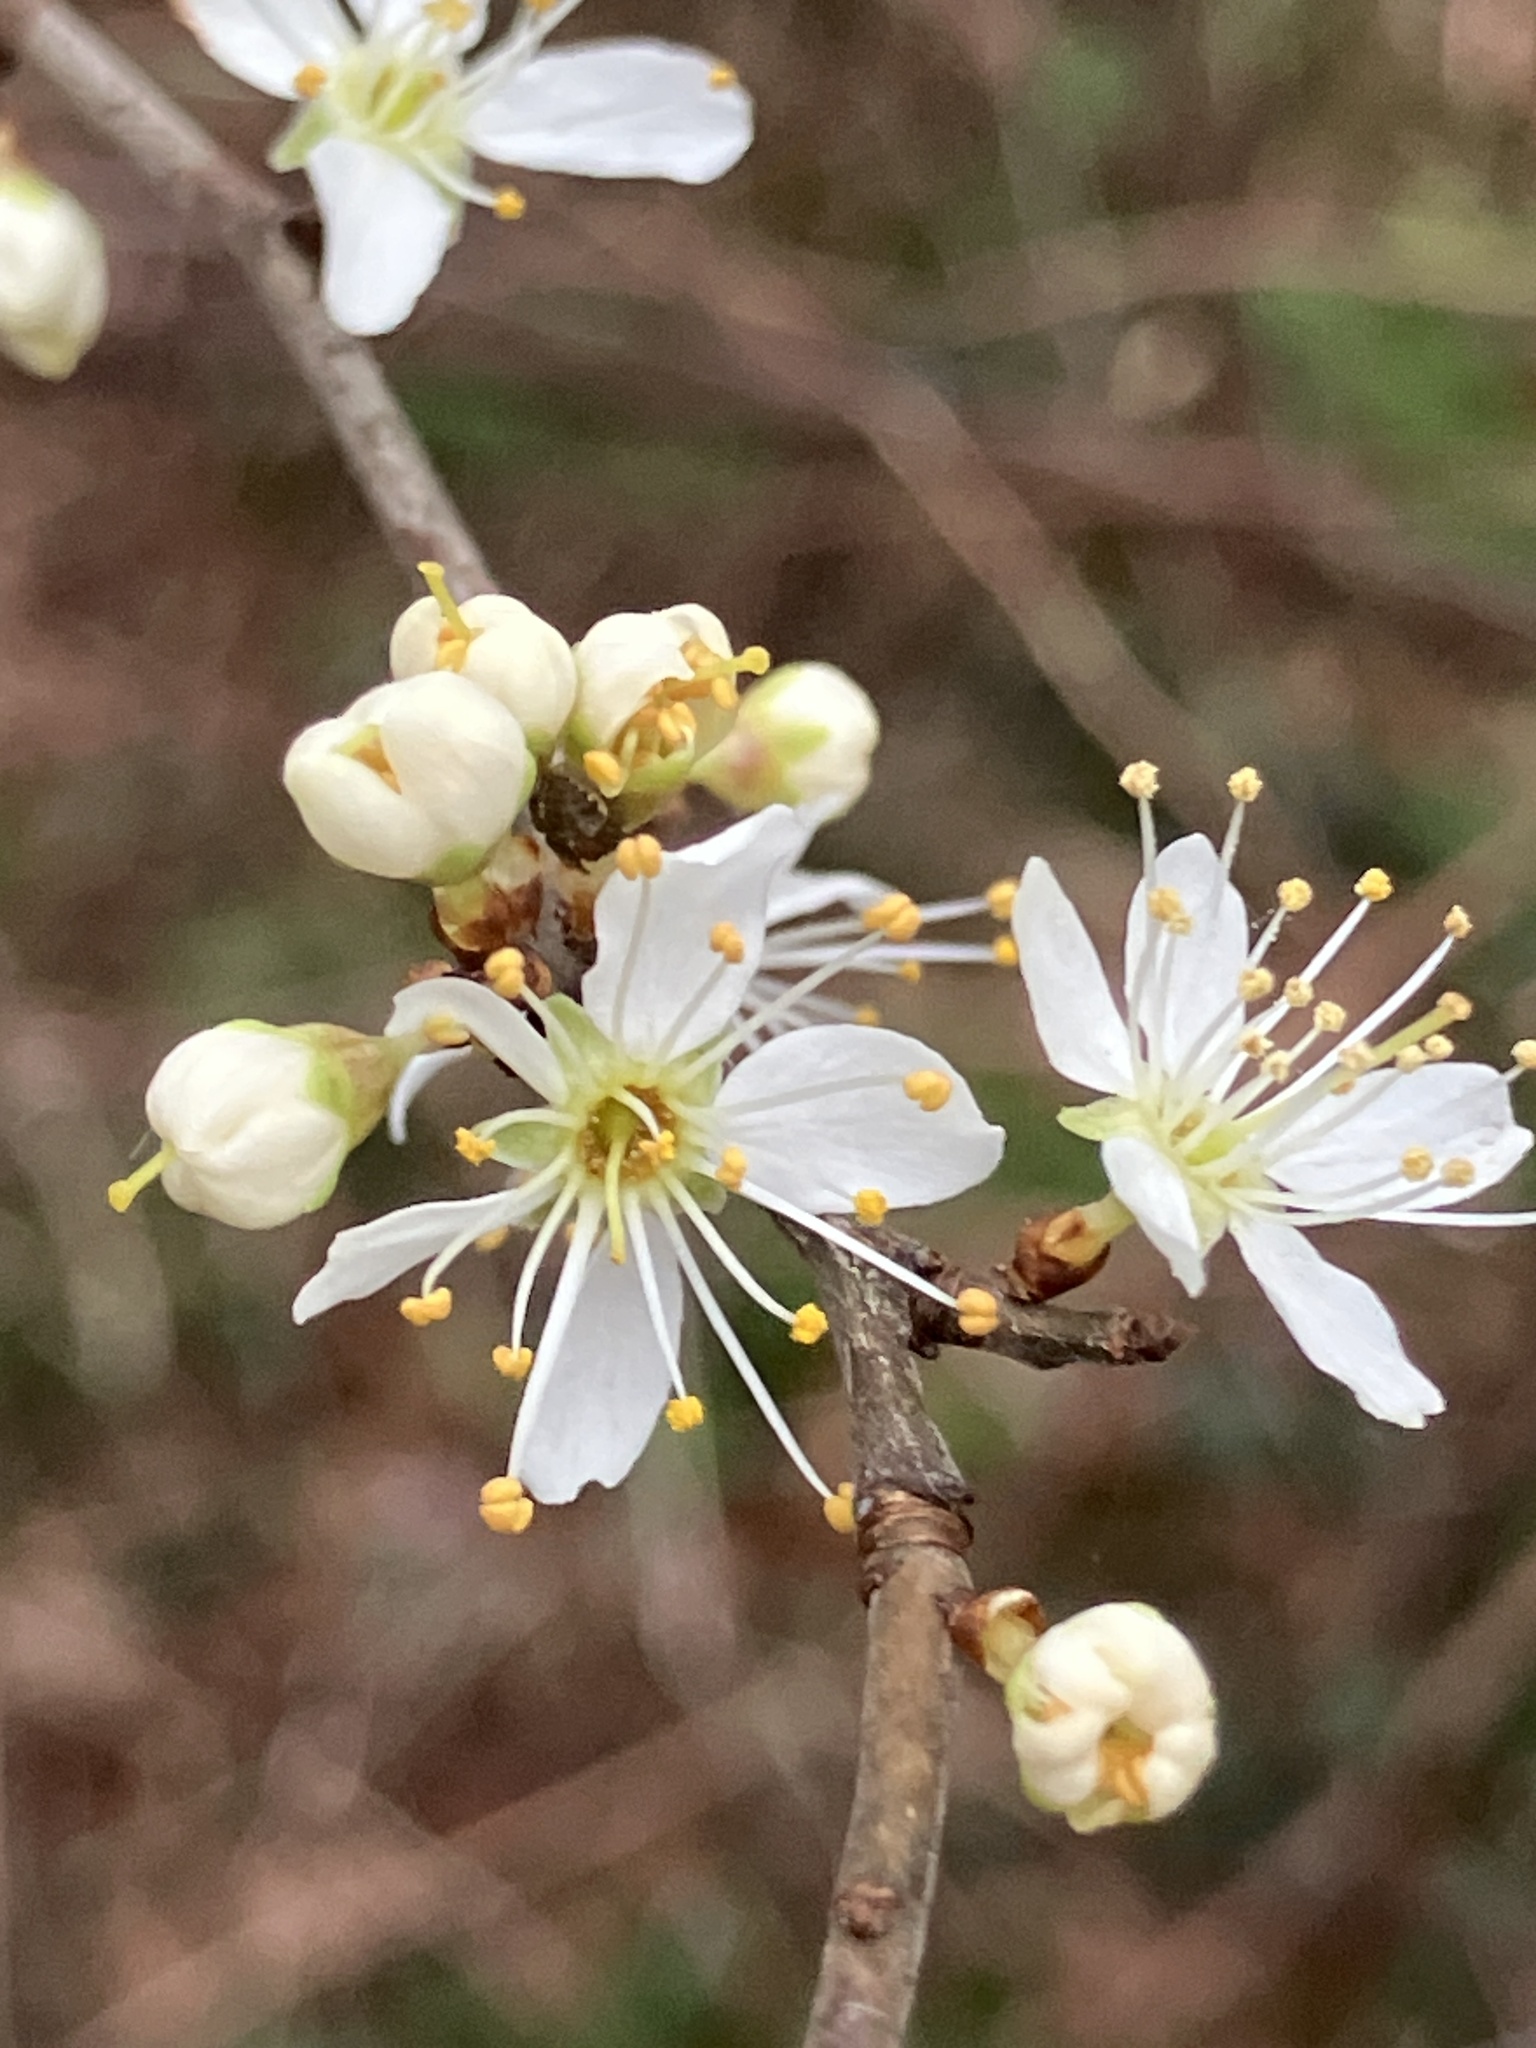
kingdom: Plantae
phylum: Tracheophyta
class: Magnoliopsida
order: Rosales
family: Rosaceae
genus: Prunus
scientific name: Prunus spinosa
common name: Blackthorn
